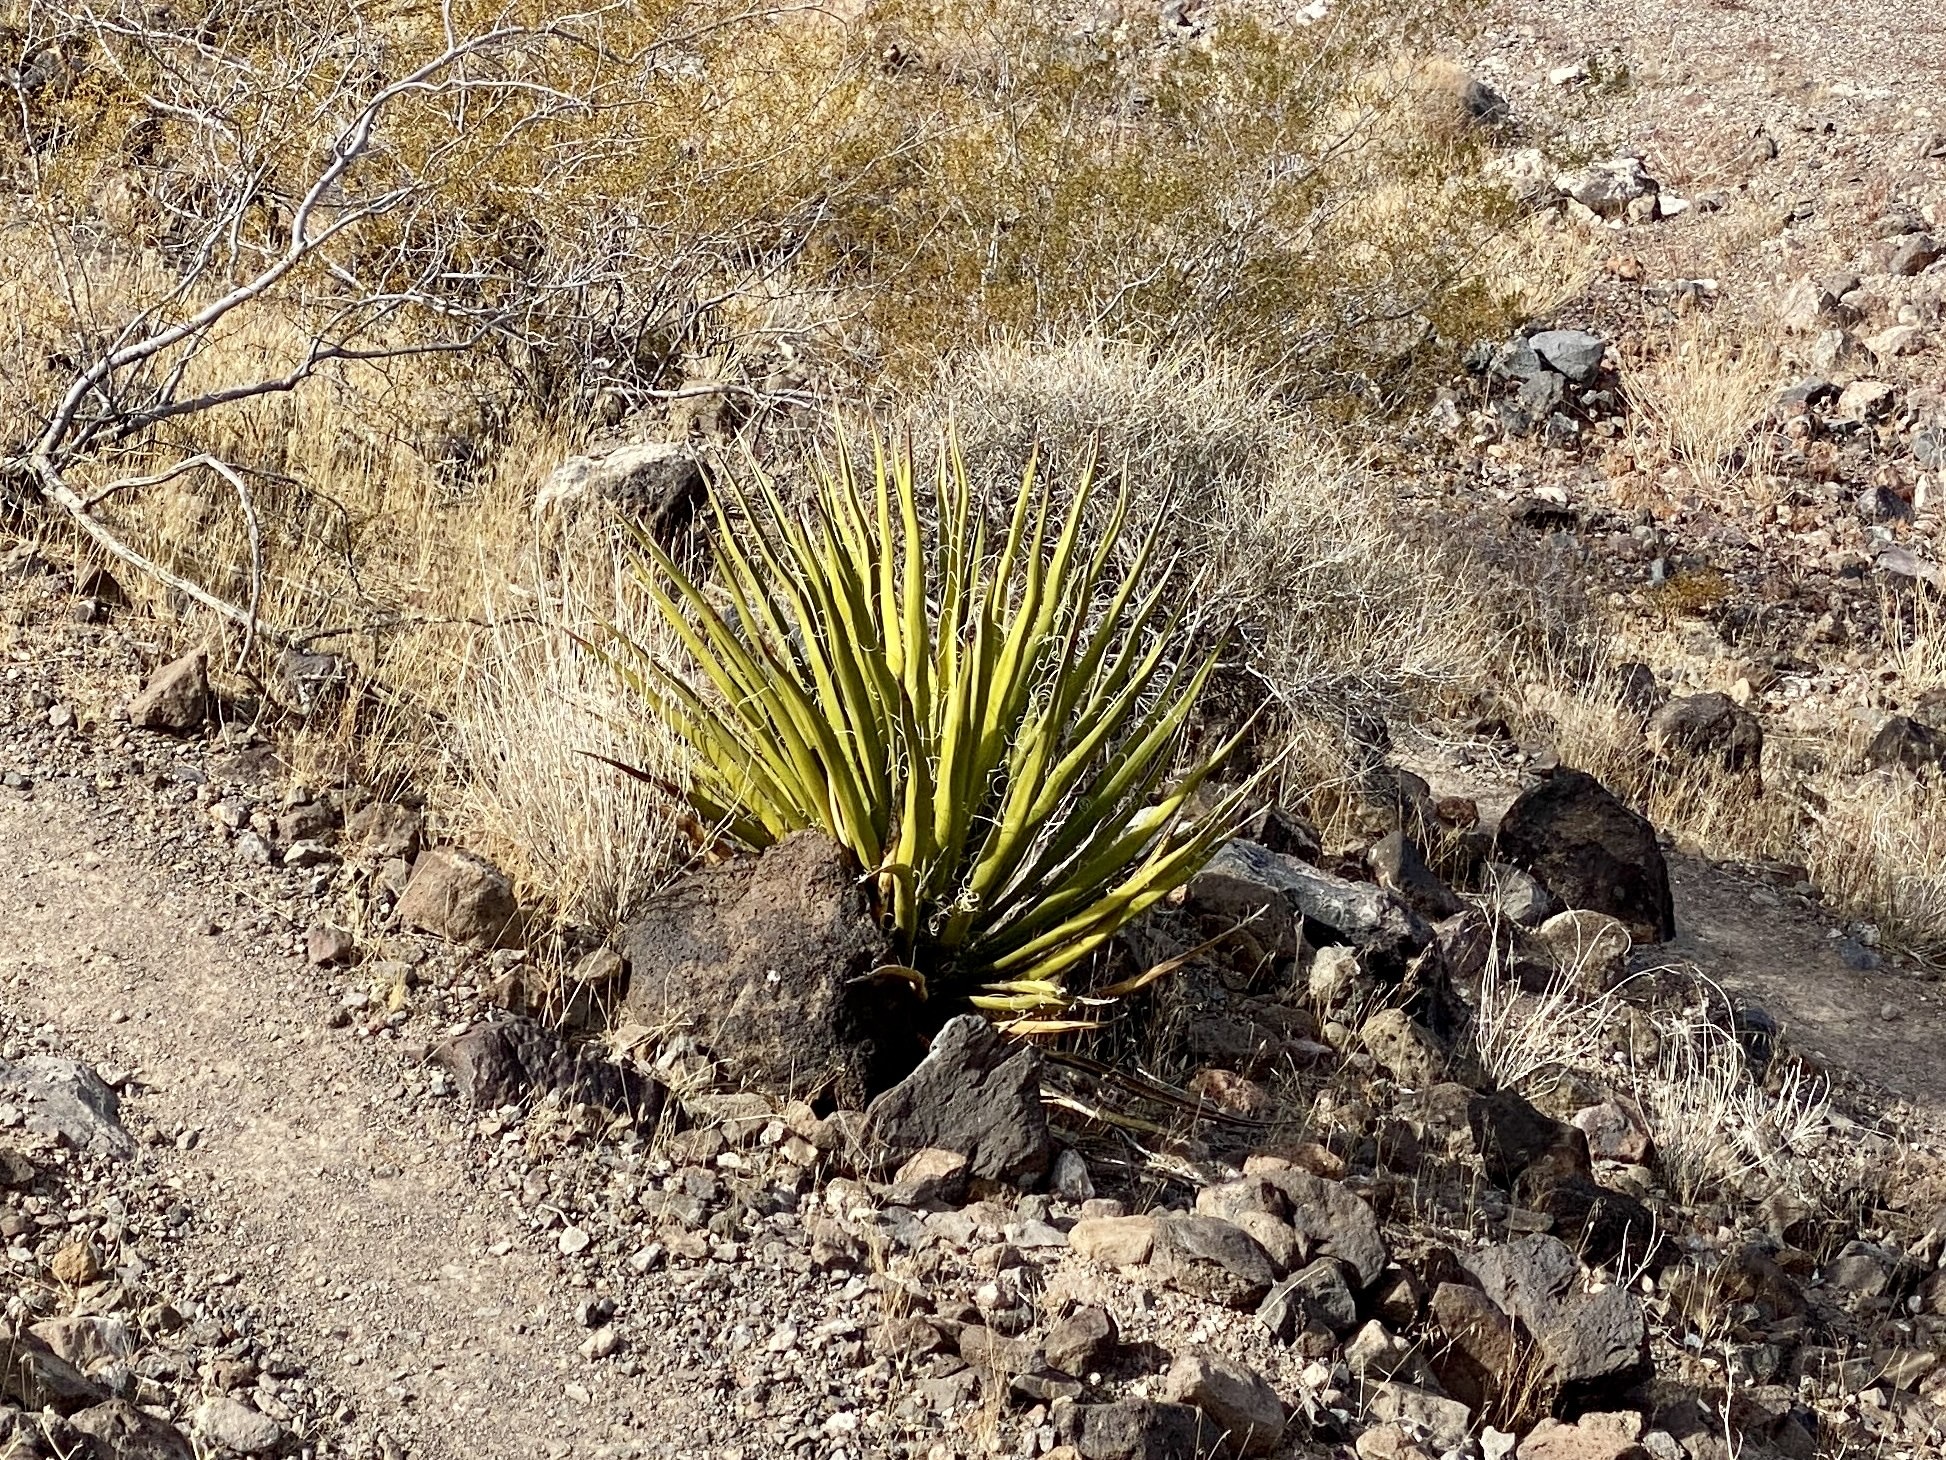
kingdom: Plantae
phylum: Tracheophyta
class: Liliopsida
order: Asparagales
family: Asparagaceae
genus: Yucca
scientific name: Yucca schidigera
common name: Mojave yucca
